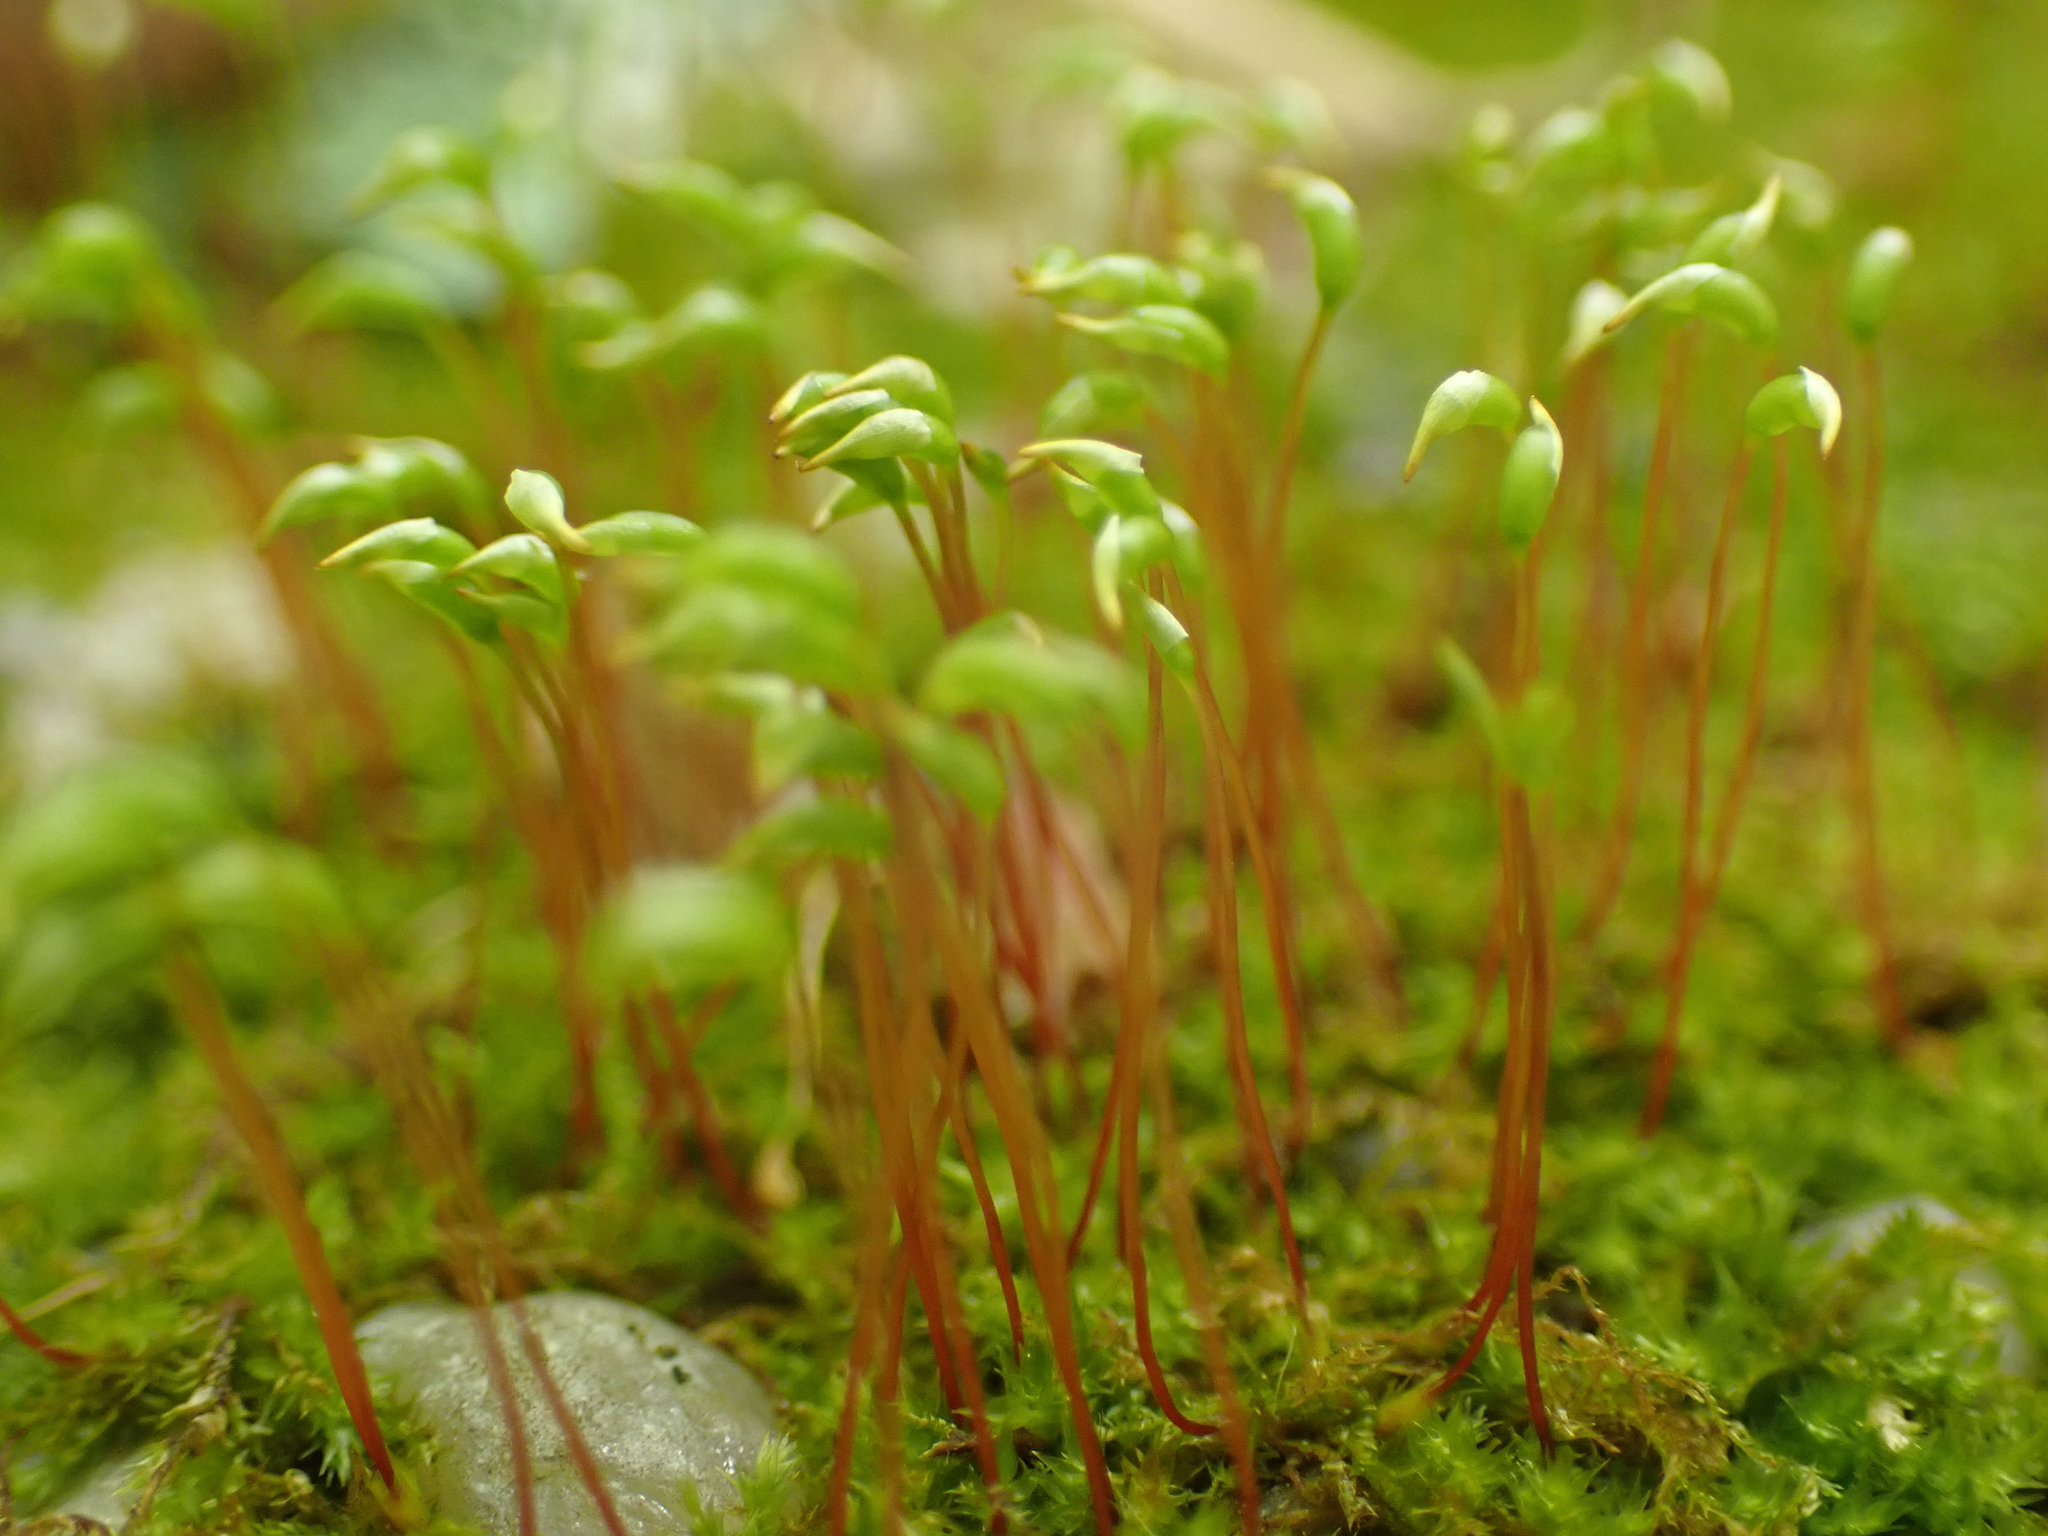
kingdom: Plantae
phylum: Bryophyta
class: Bryopsida
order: Dicranales
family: Ditrichaceae
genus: Ceratodon
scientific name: Ceratodon purpureus
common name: Redshank
